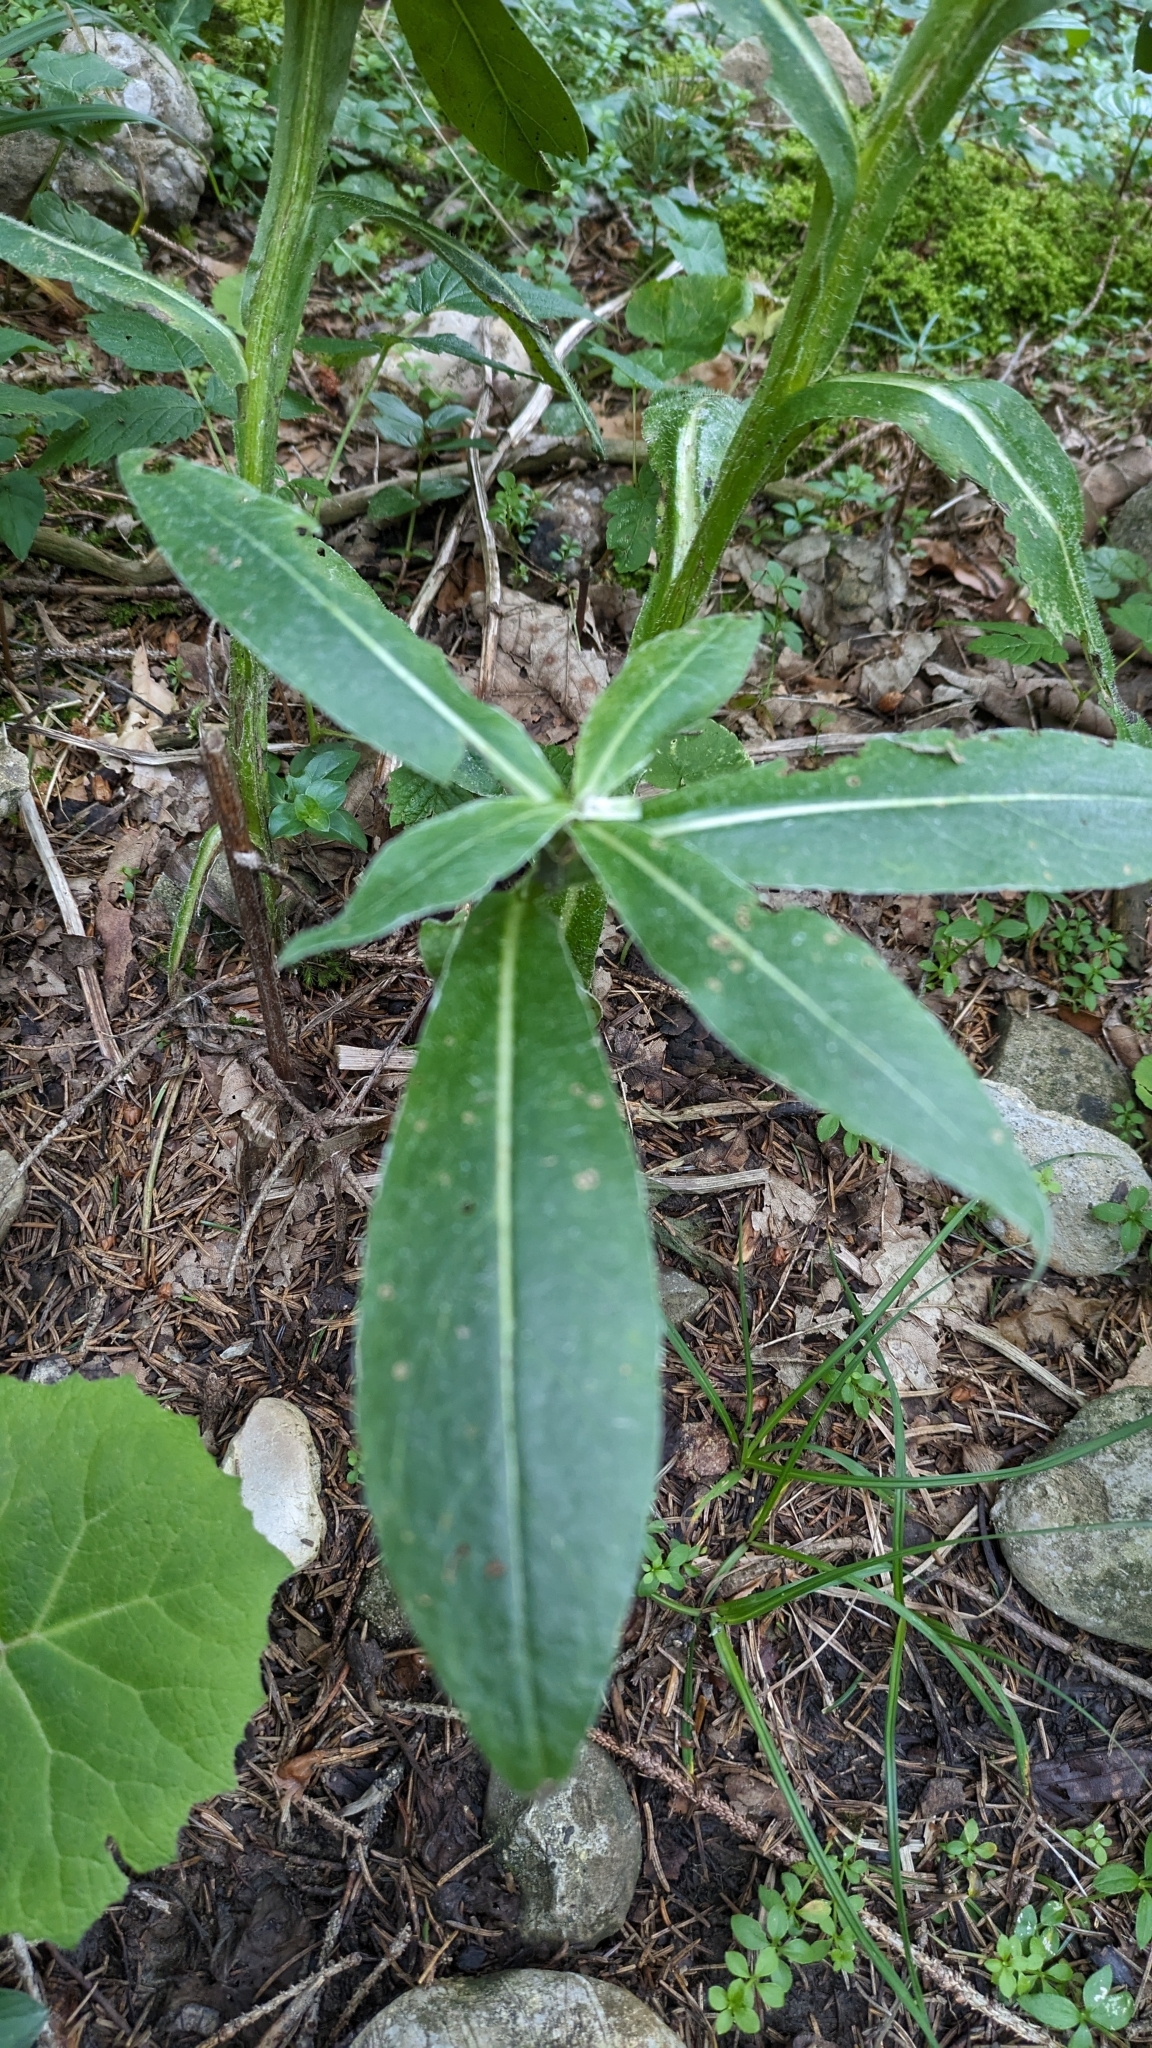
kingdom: Plantae
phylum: Tracheophyta
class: Magnoliopsida
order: Asterales
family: Asteraceae
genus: Centaurea
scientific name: Centaurea montana
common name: Perennial cornflower
